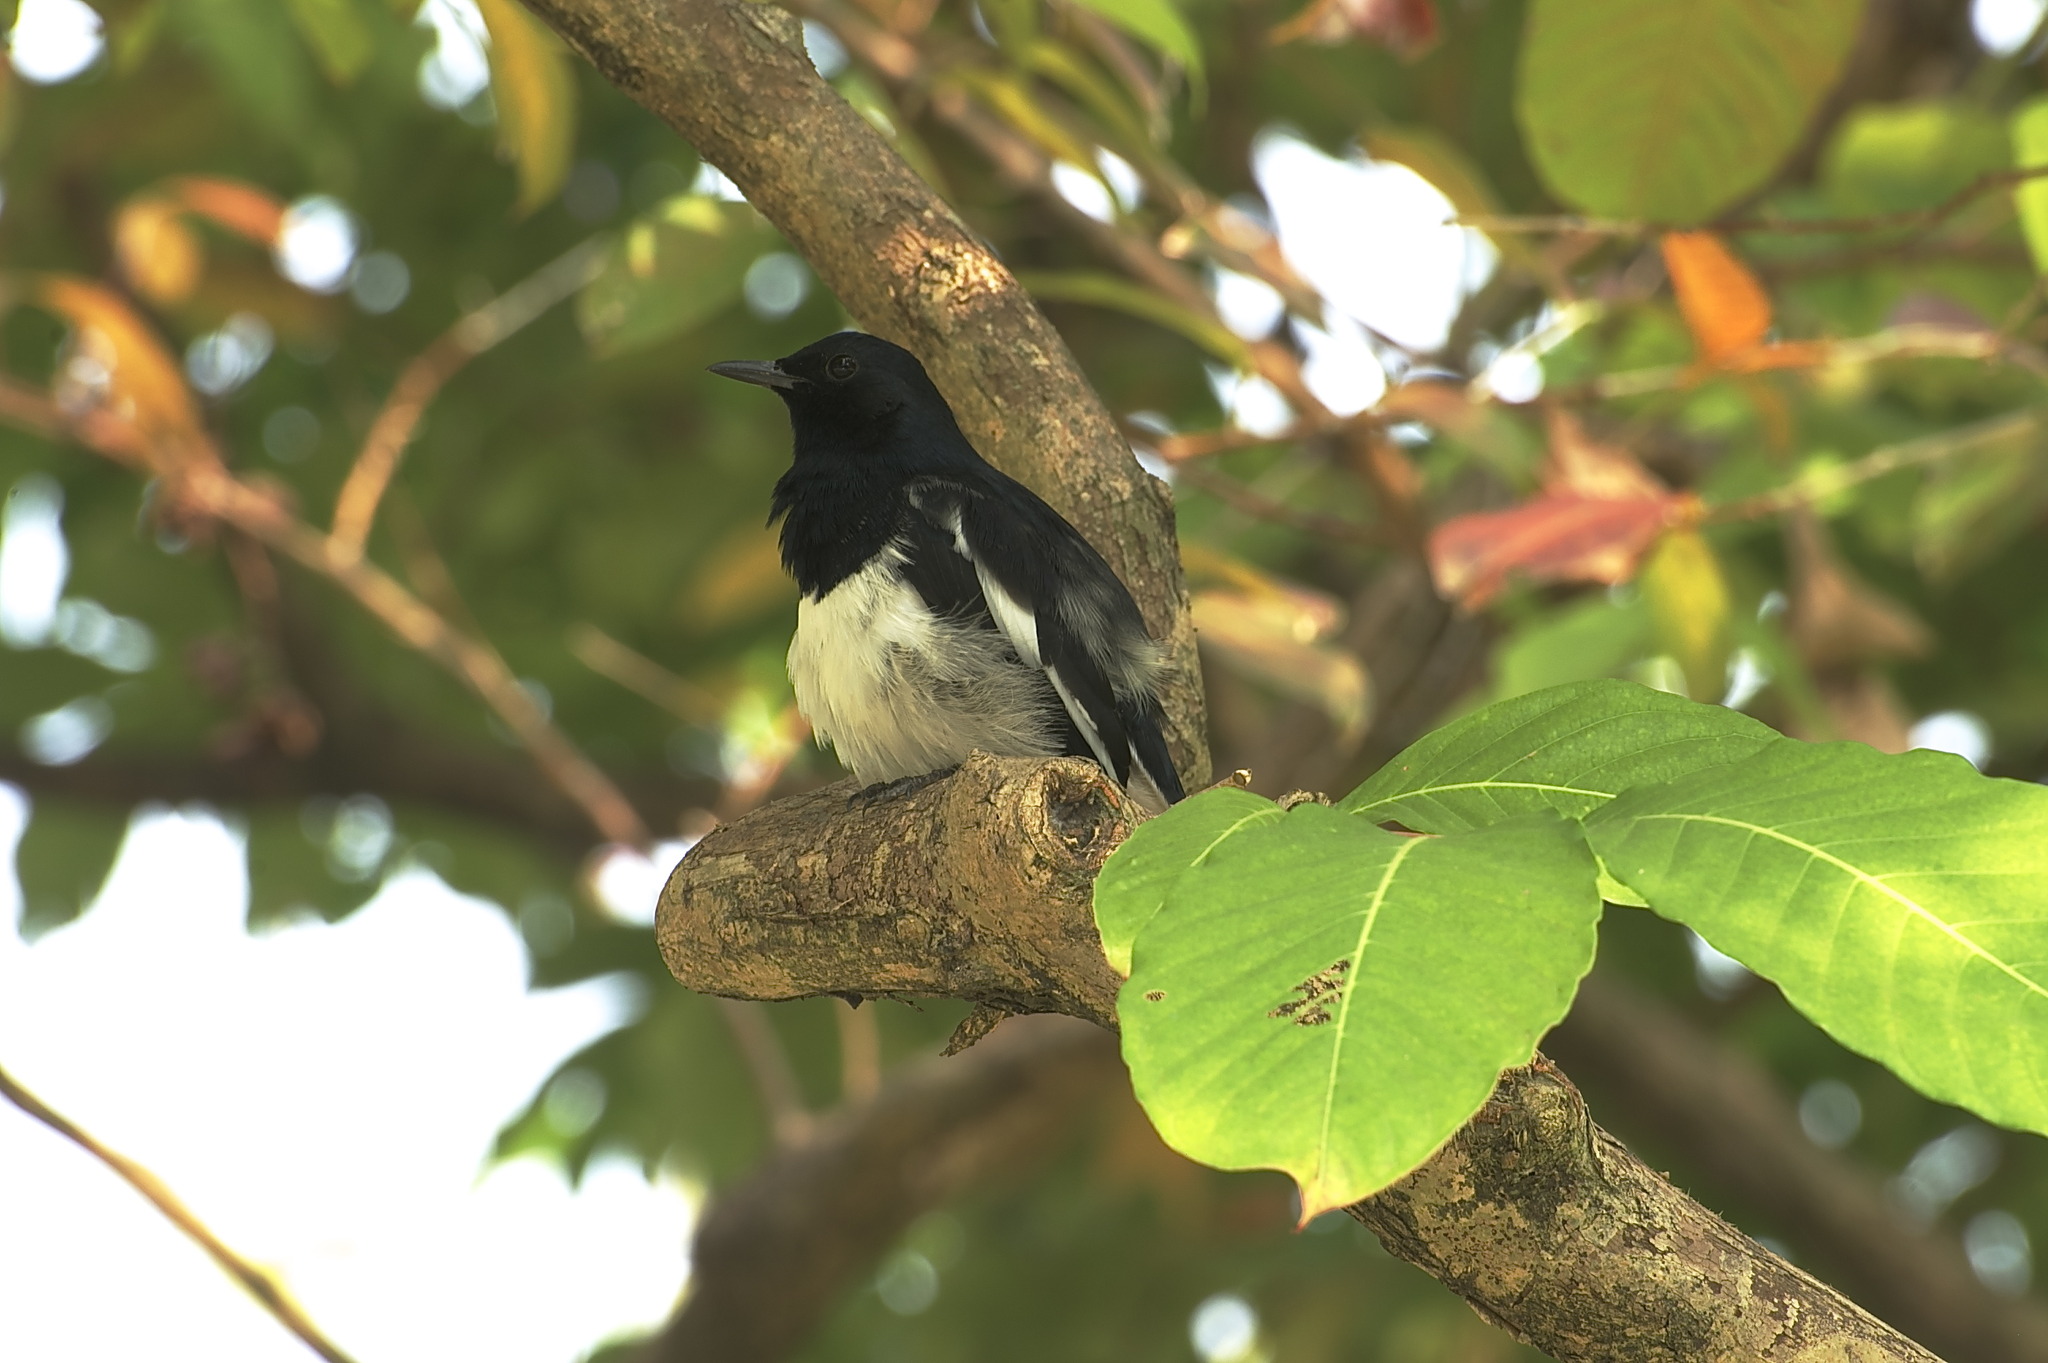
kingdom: Animalia
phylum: Chordata
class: Aves
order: Passeriformes
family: Muscicapidae
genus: Copsychus
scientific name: Copsychus saularis
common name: Oriental magpie-robin
